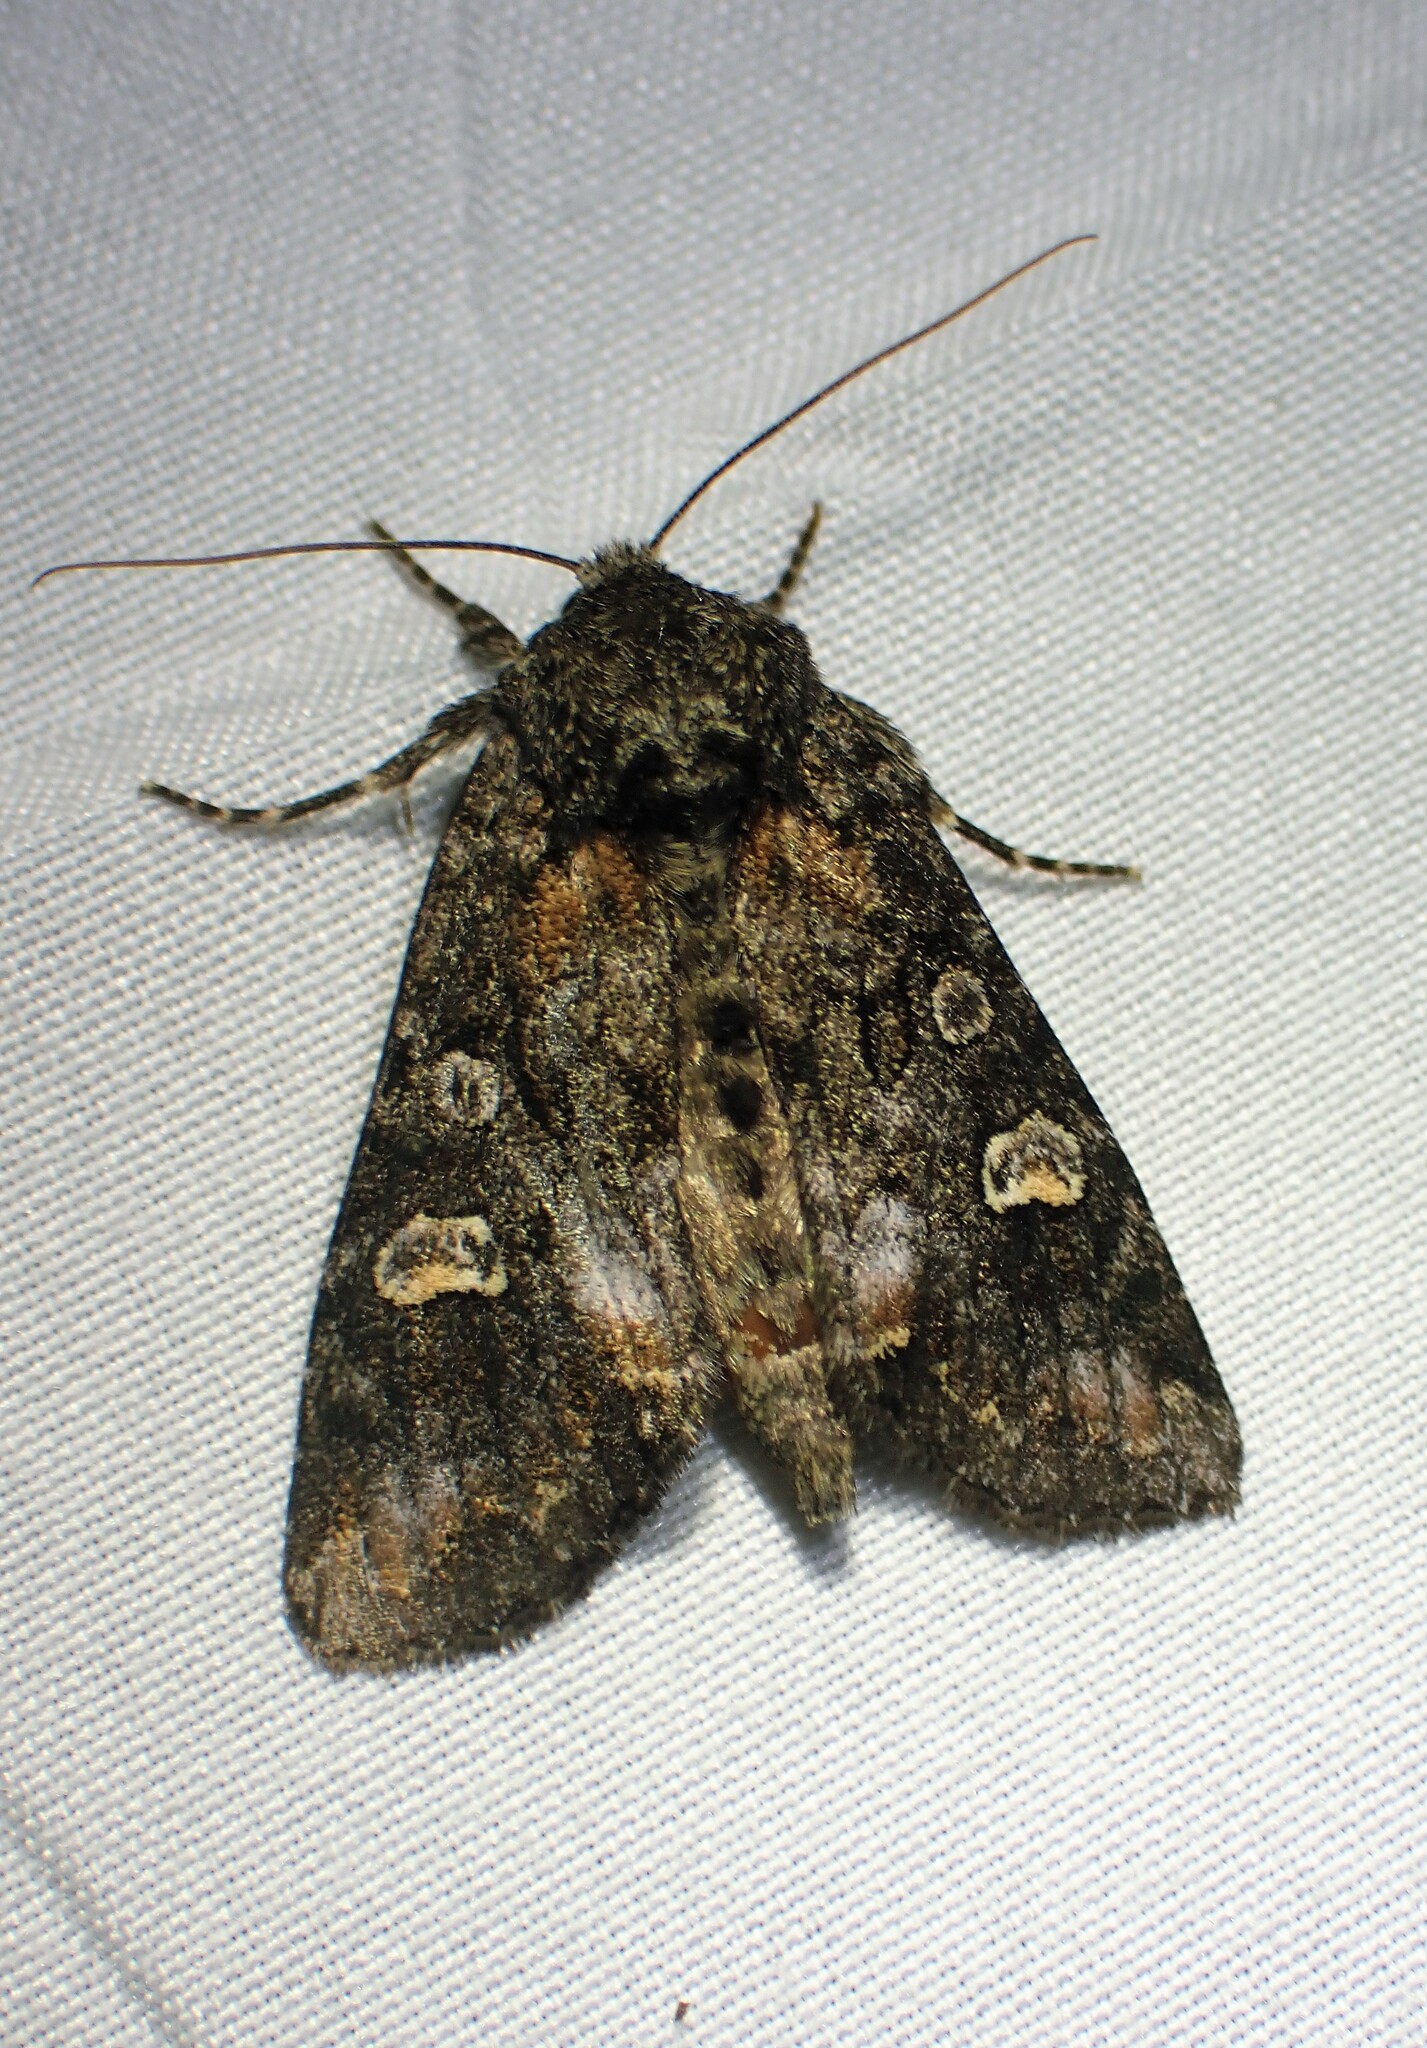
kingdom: Animalia
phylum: Arthropoda
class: Insecta
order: Lepidoptera
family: Noctuidae
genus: Spiramater
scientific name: Spiramater lutra
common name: Otter spiramater moth
